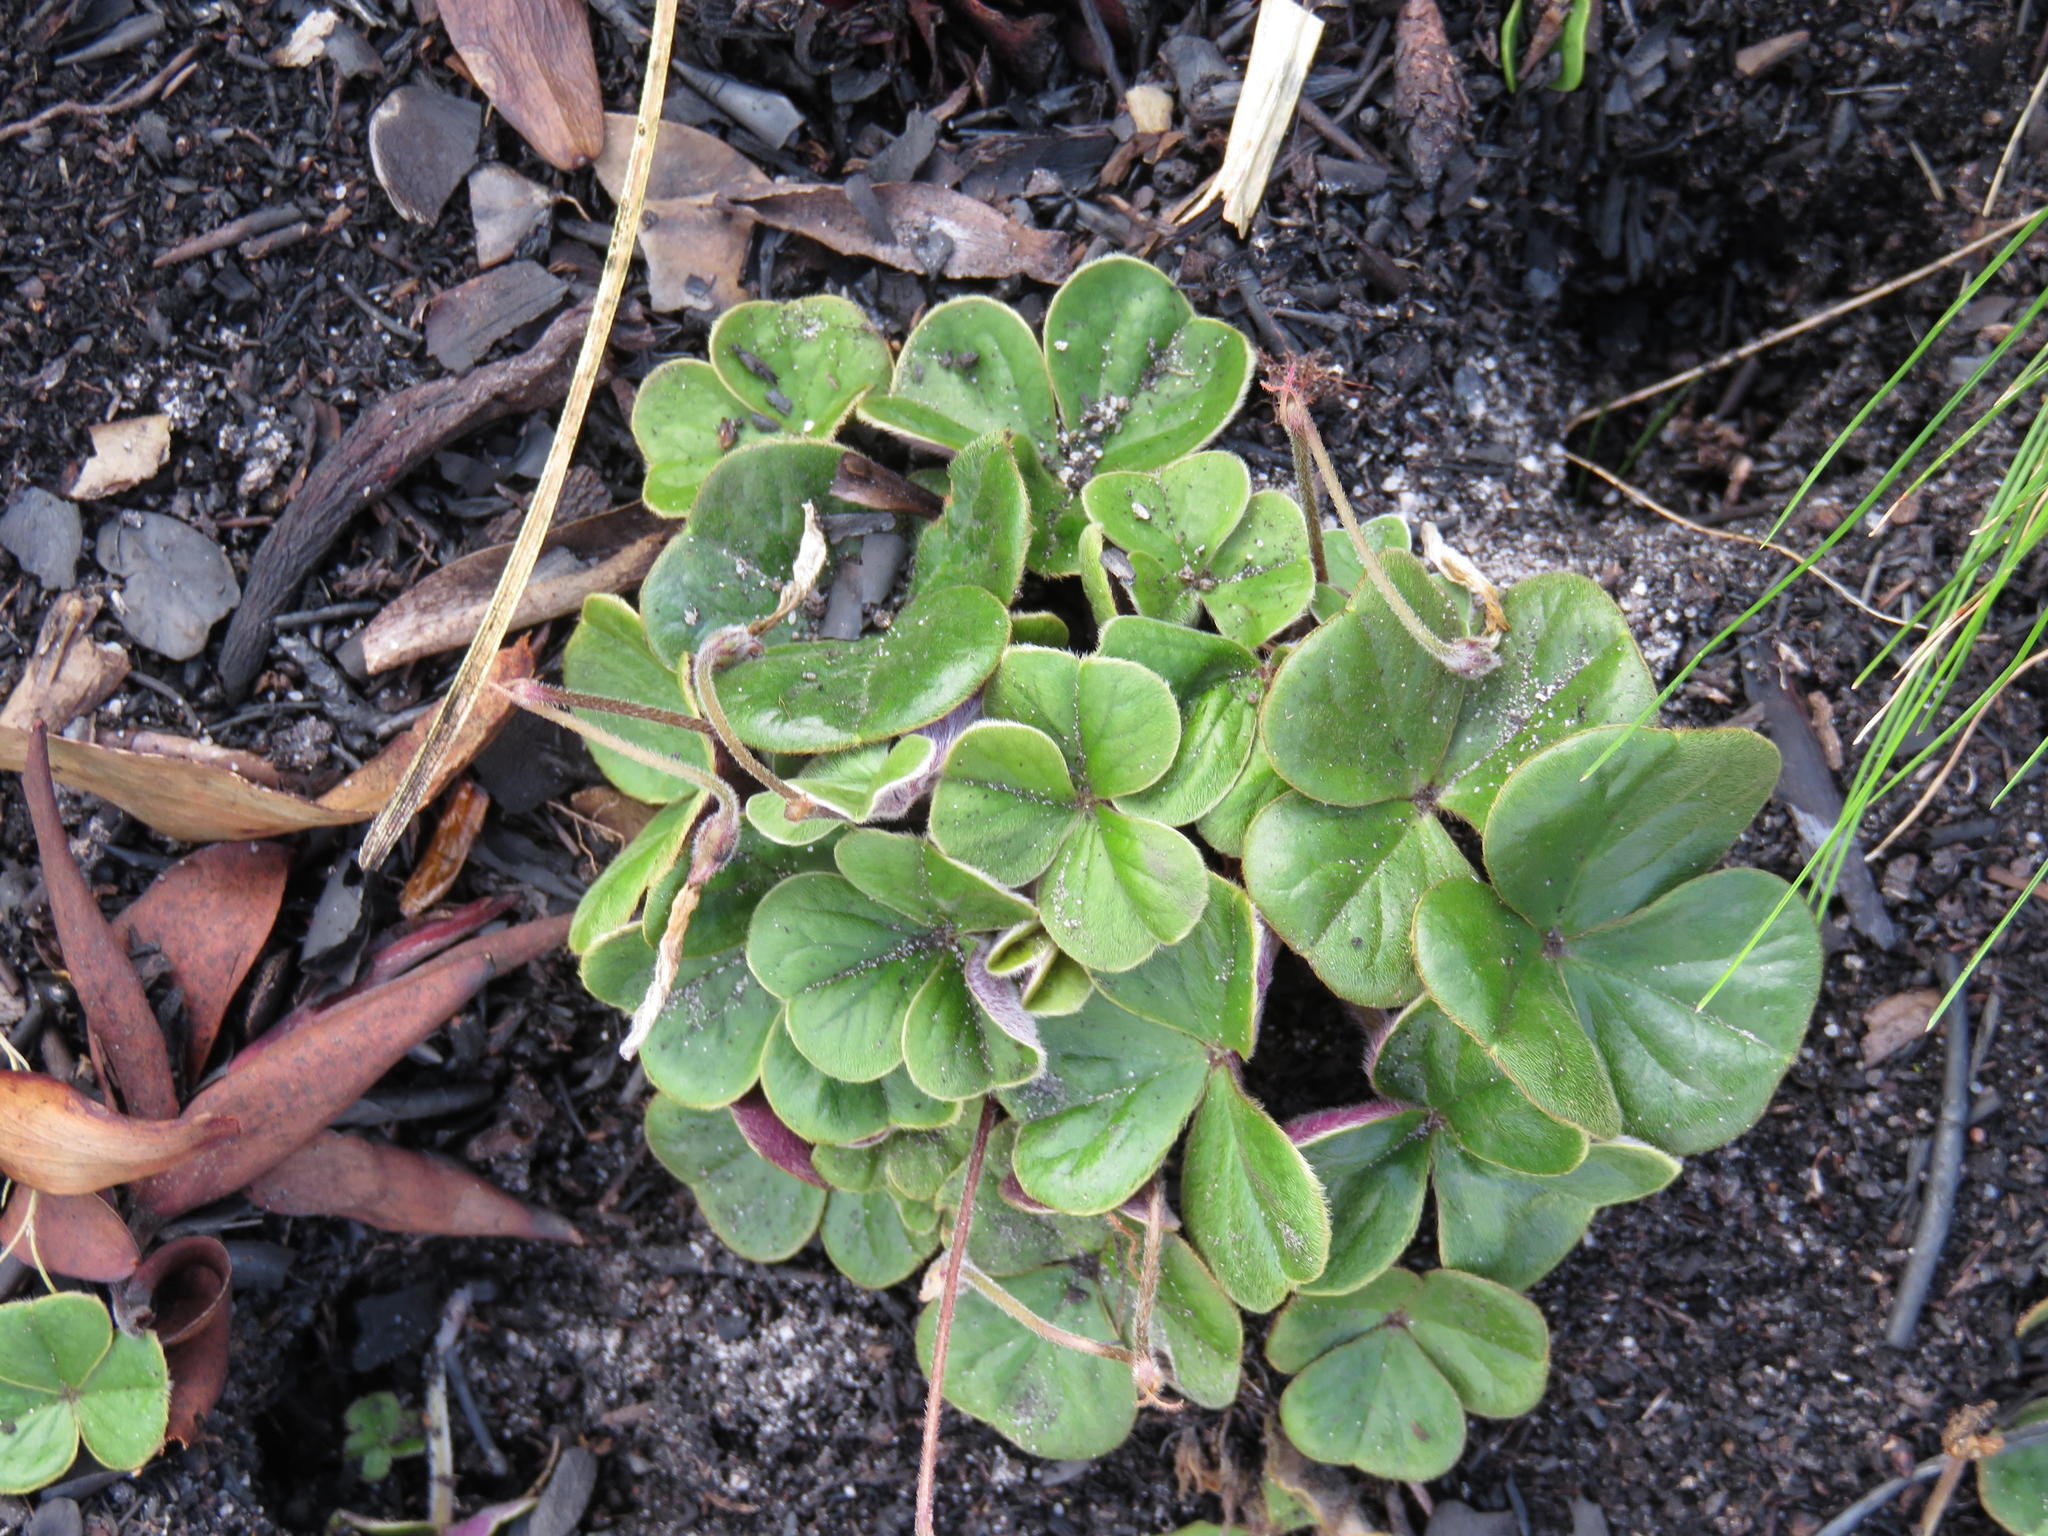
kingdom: Plantae
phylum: Tracheophyta
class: Magnoliopsida
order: Oxalidales
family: Oxalidaceae
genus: Oxalis
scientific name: Oxalis truncatula
